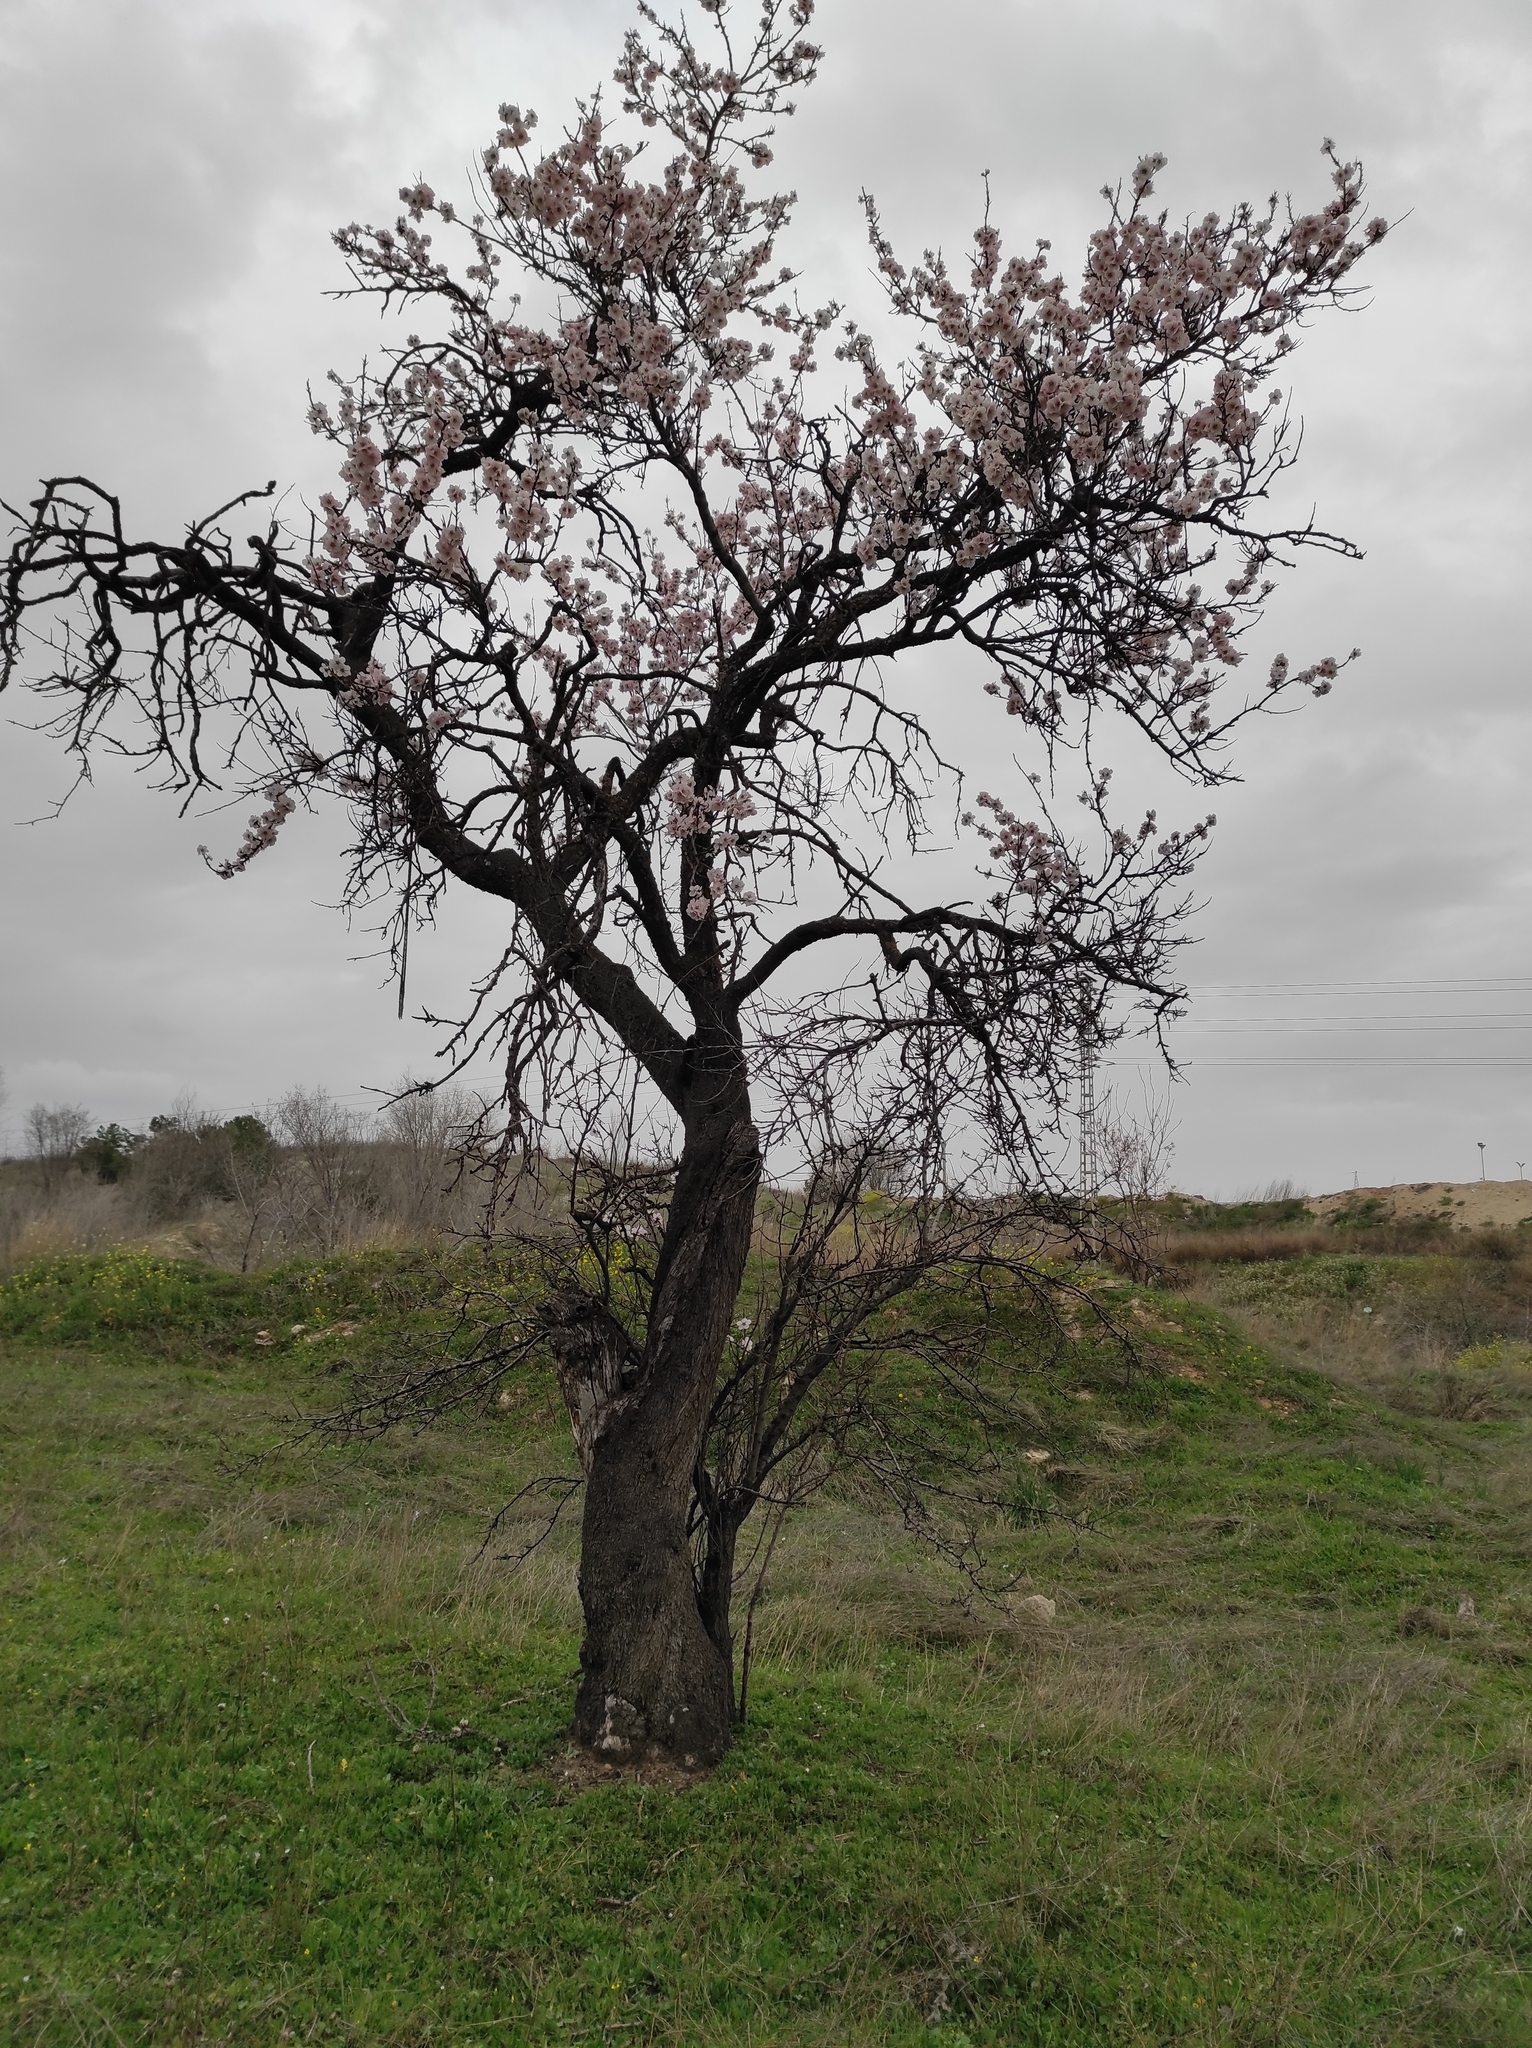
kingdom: Plantae
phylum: Tracheophyta
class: Magnoliopsida
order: Rosales
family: Rosaceae
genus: Prunus
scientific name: Prunus amygdalus
